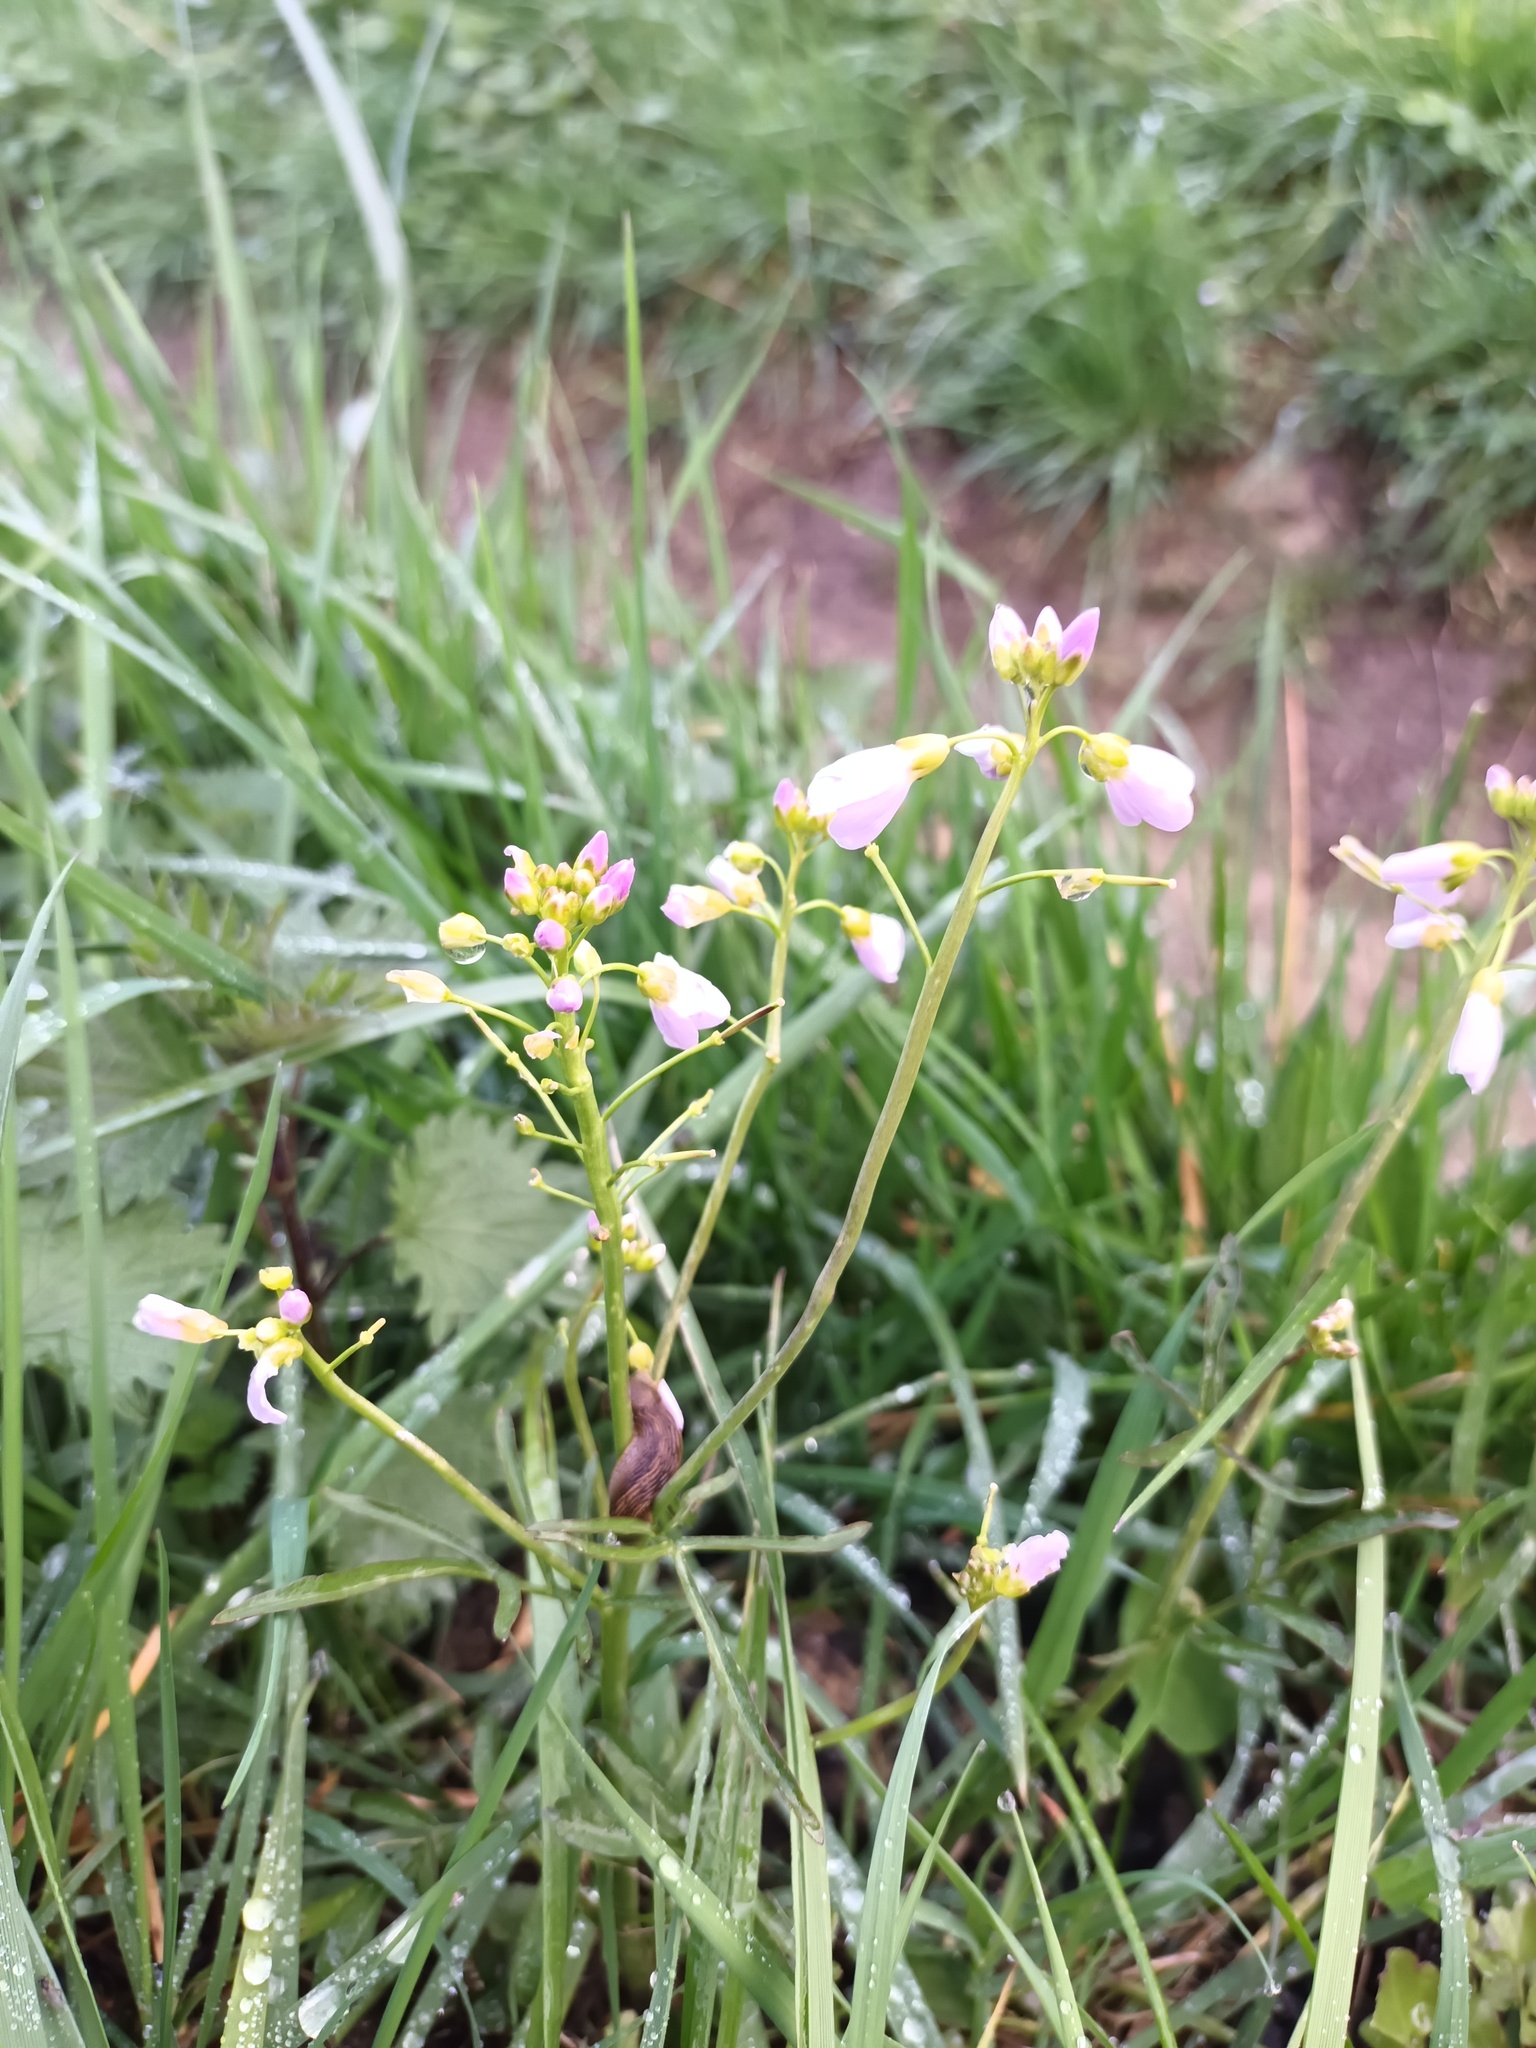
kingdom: Plantae
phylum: Tracheophyta
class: Magnoliopsida
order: Brassicales
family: Brassicaceae
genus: Cardamine
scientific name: Cardamine pratensis
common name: Cuckoo flower
